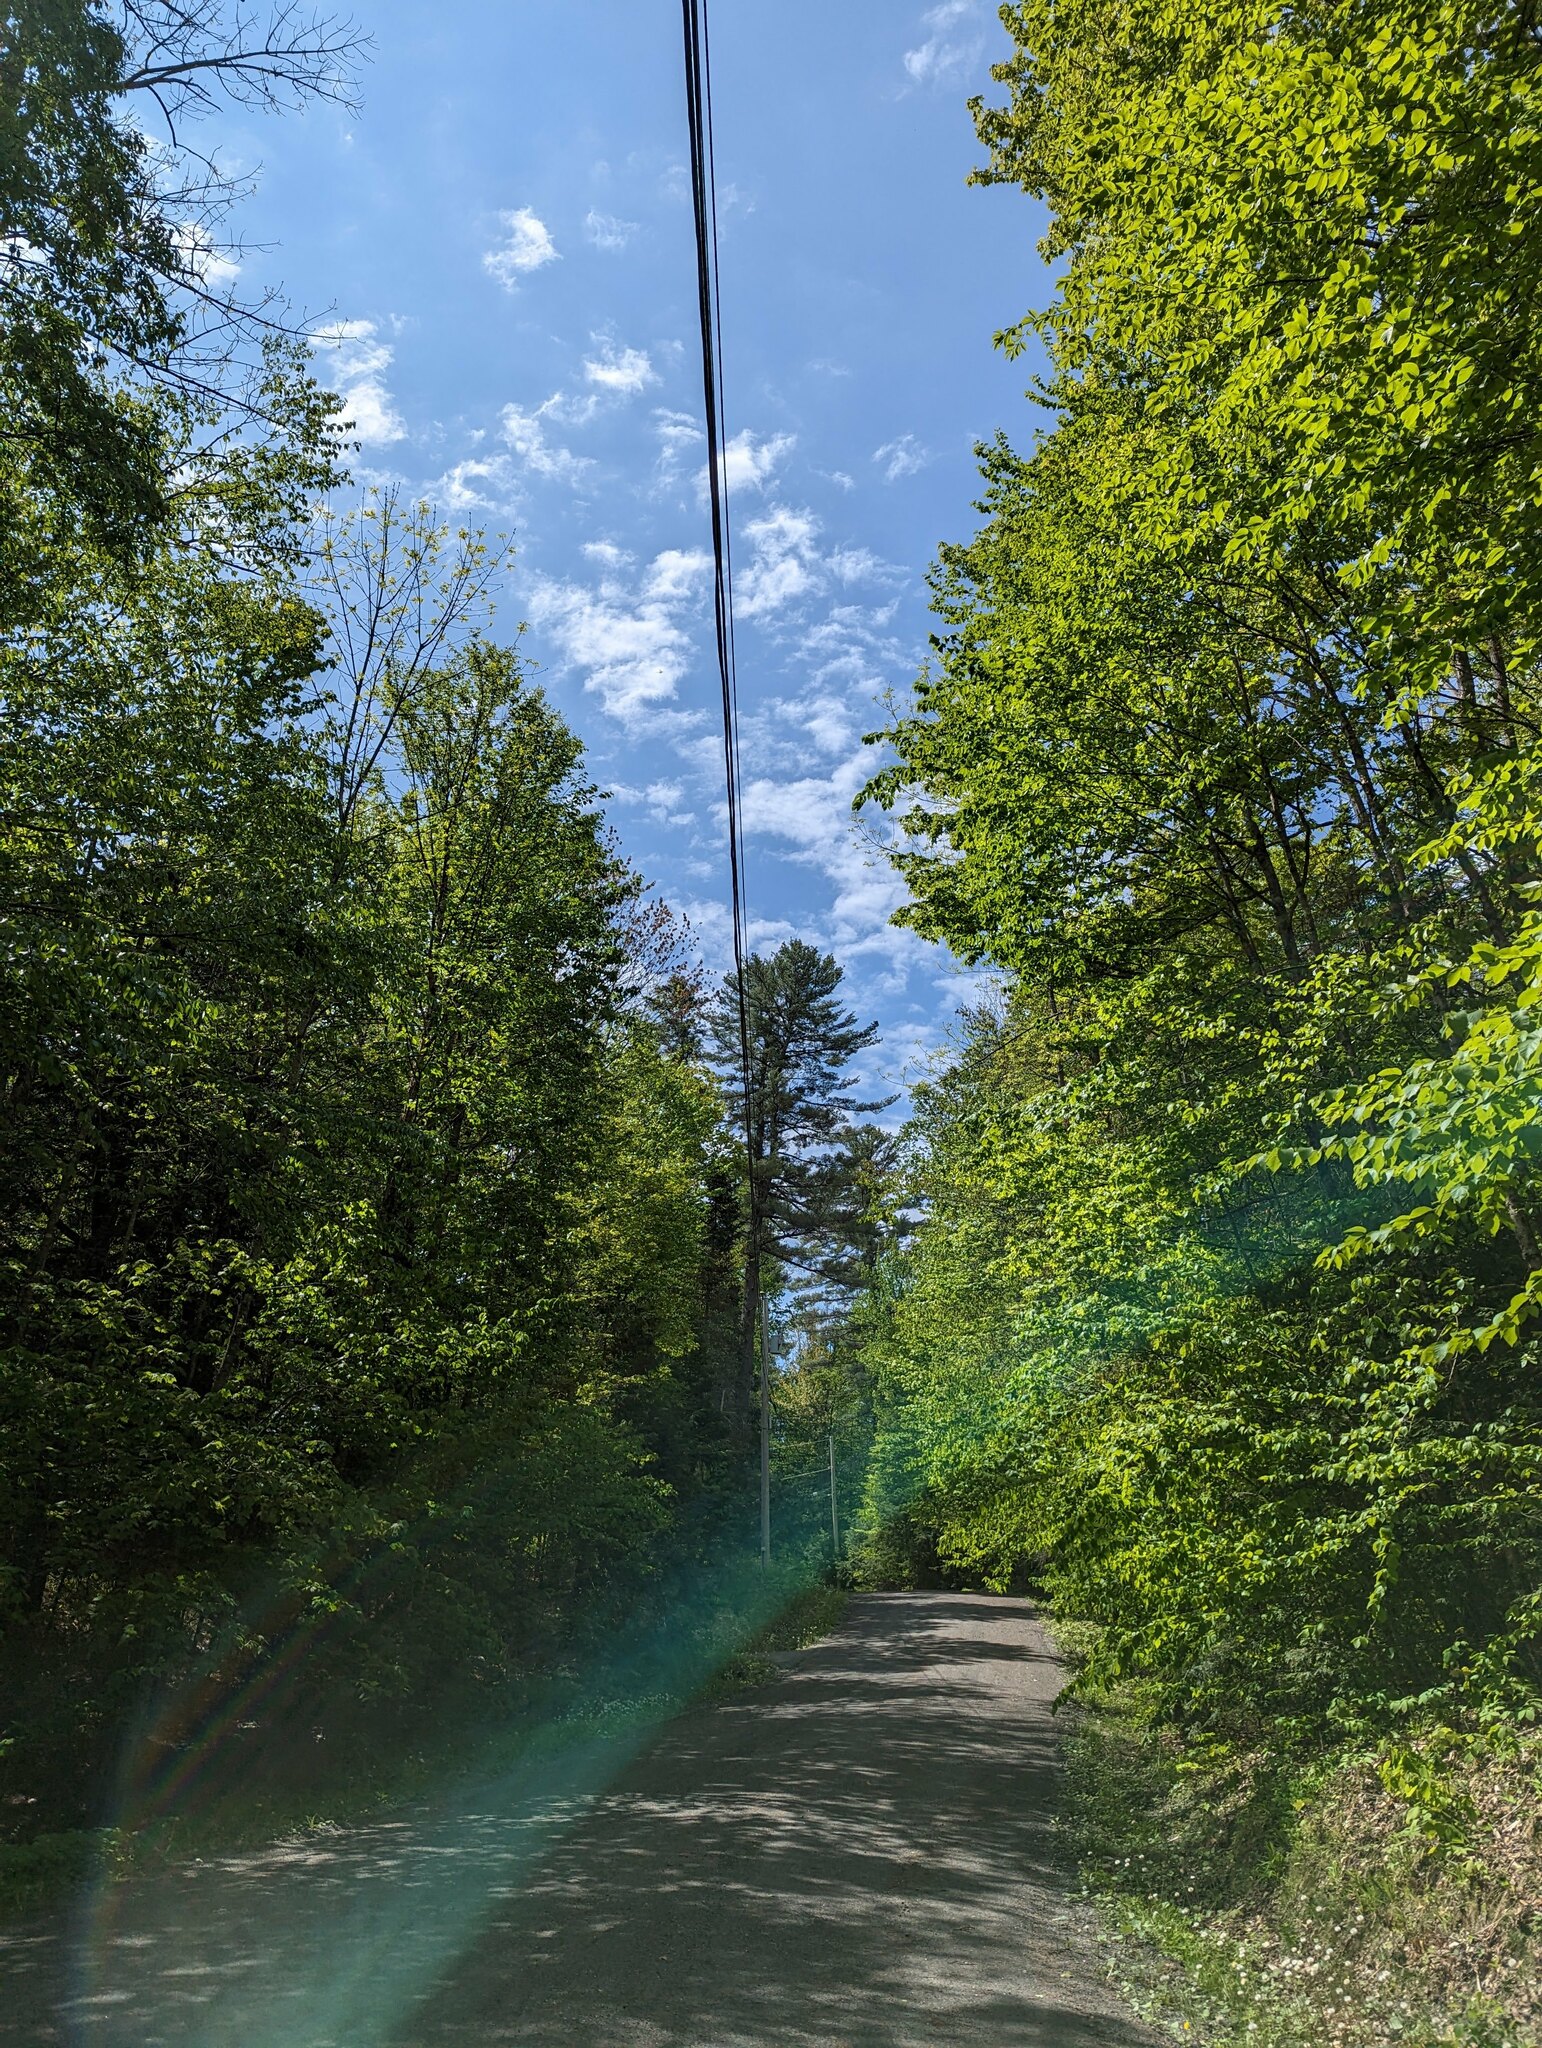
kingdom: Plantae
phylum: Tracheophyta
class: Pinopsida
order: Pinales
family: Pinaceae
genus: Pinus
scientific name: Pinus strobus
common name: Weymouth pine
